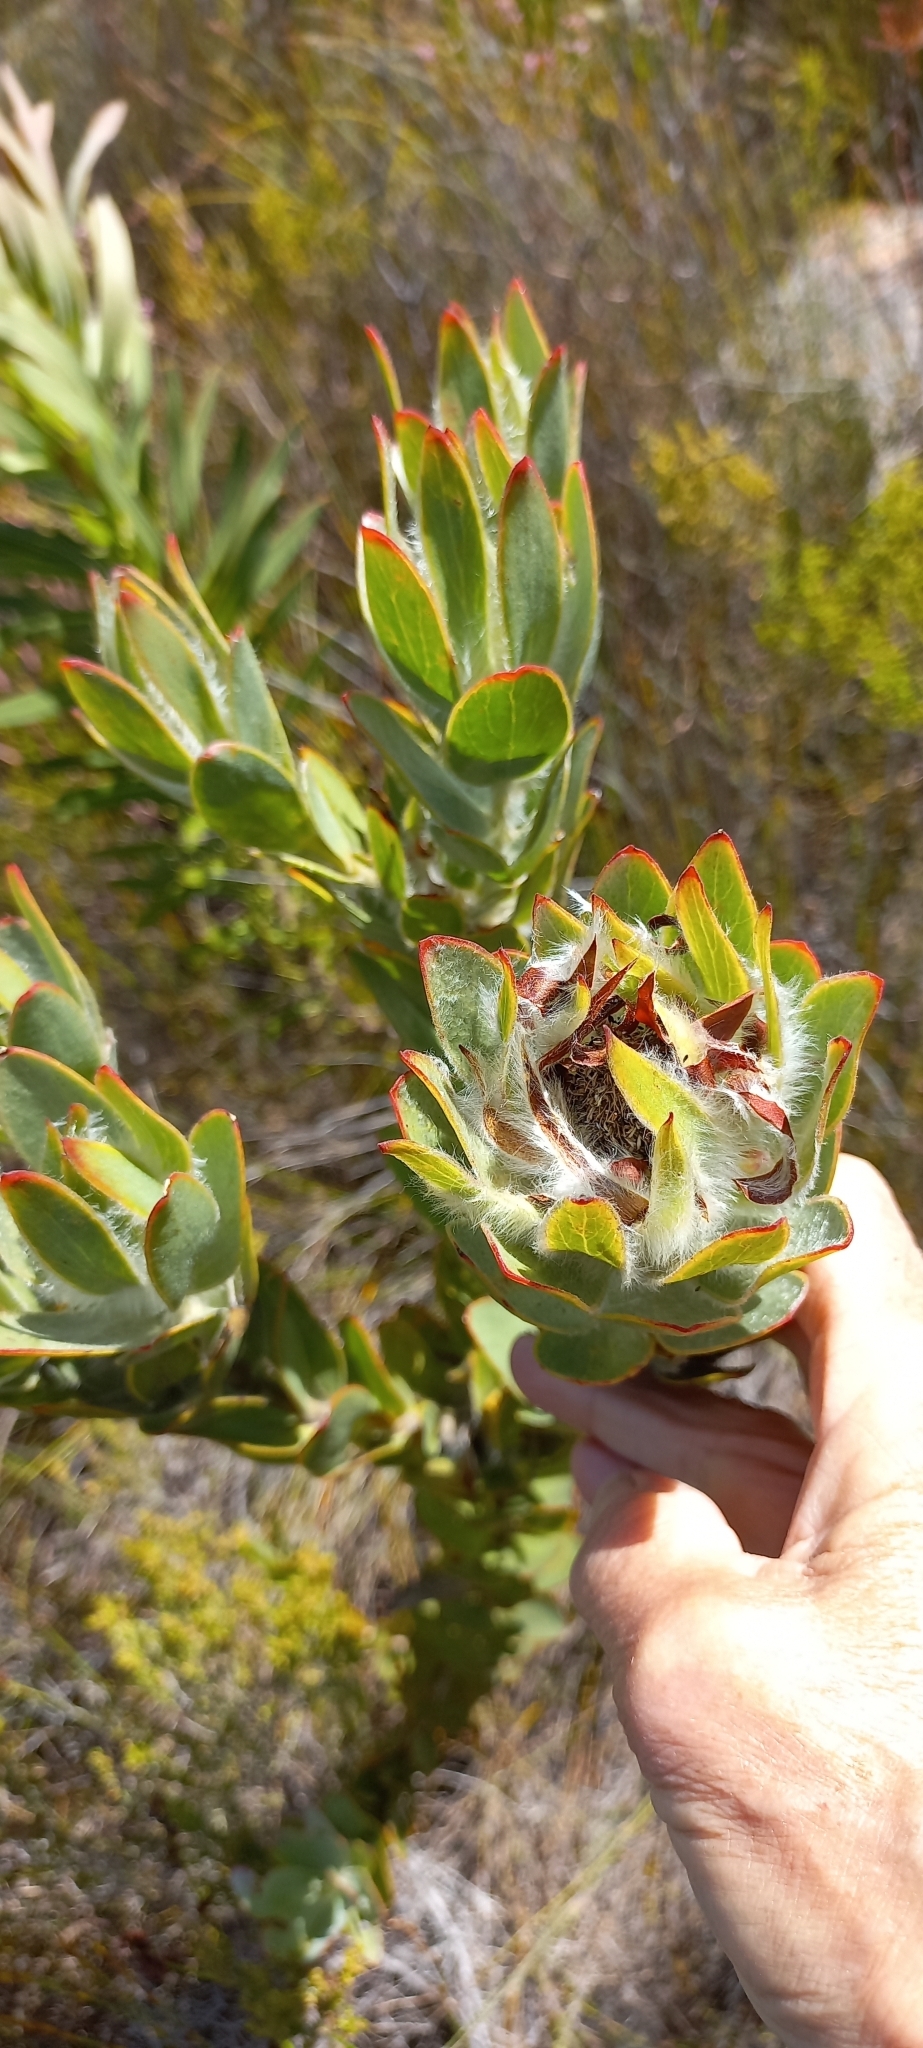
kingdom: Plantae
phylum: Tracheophyta
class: Magnoliopsida
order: Proteales
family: Proteaceae
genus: Leucadendron
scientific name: Leucadendron nervosum
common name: Silky-ruff conebush
